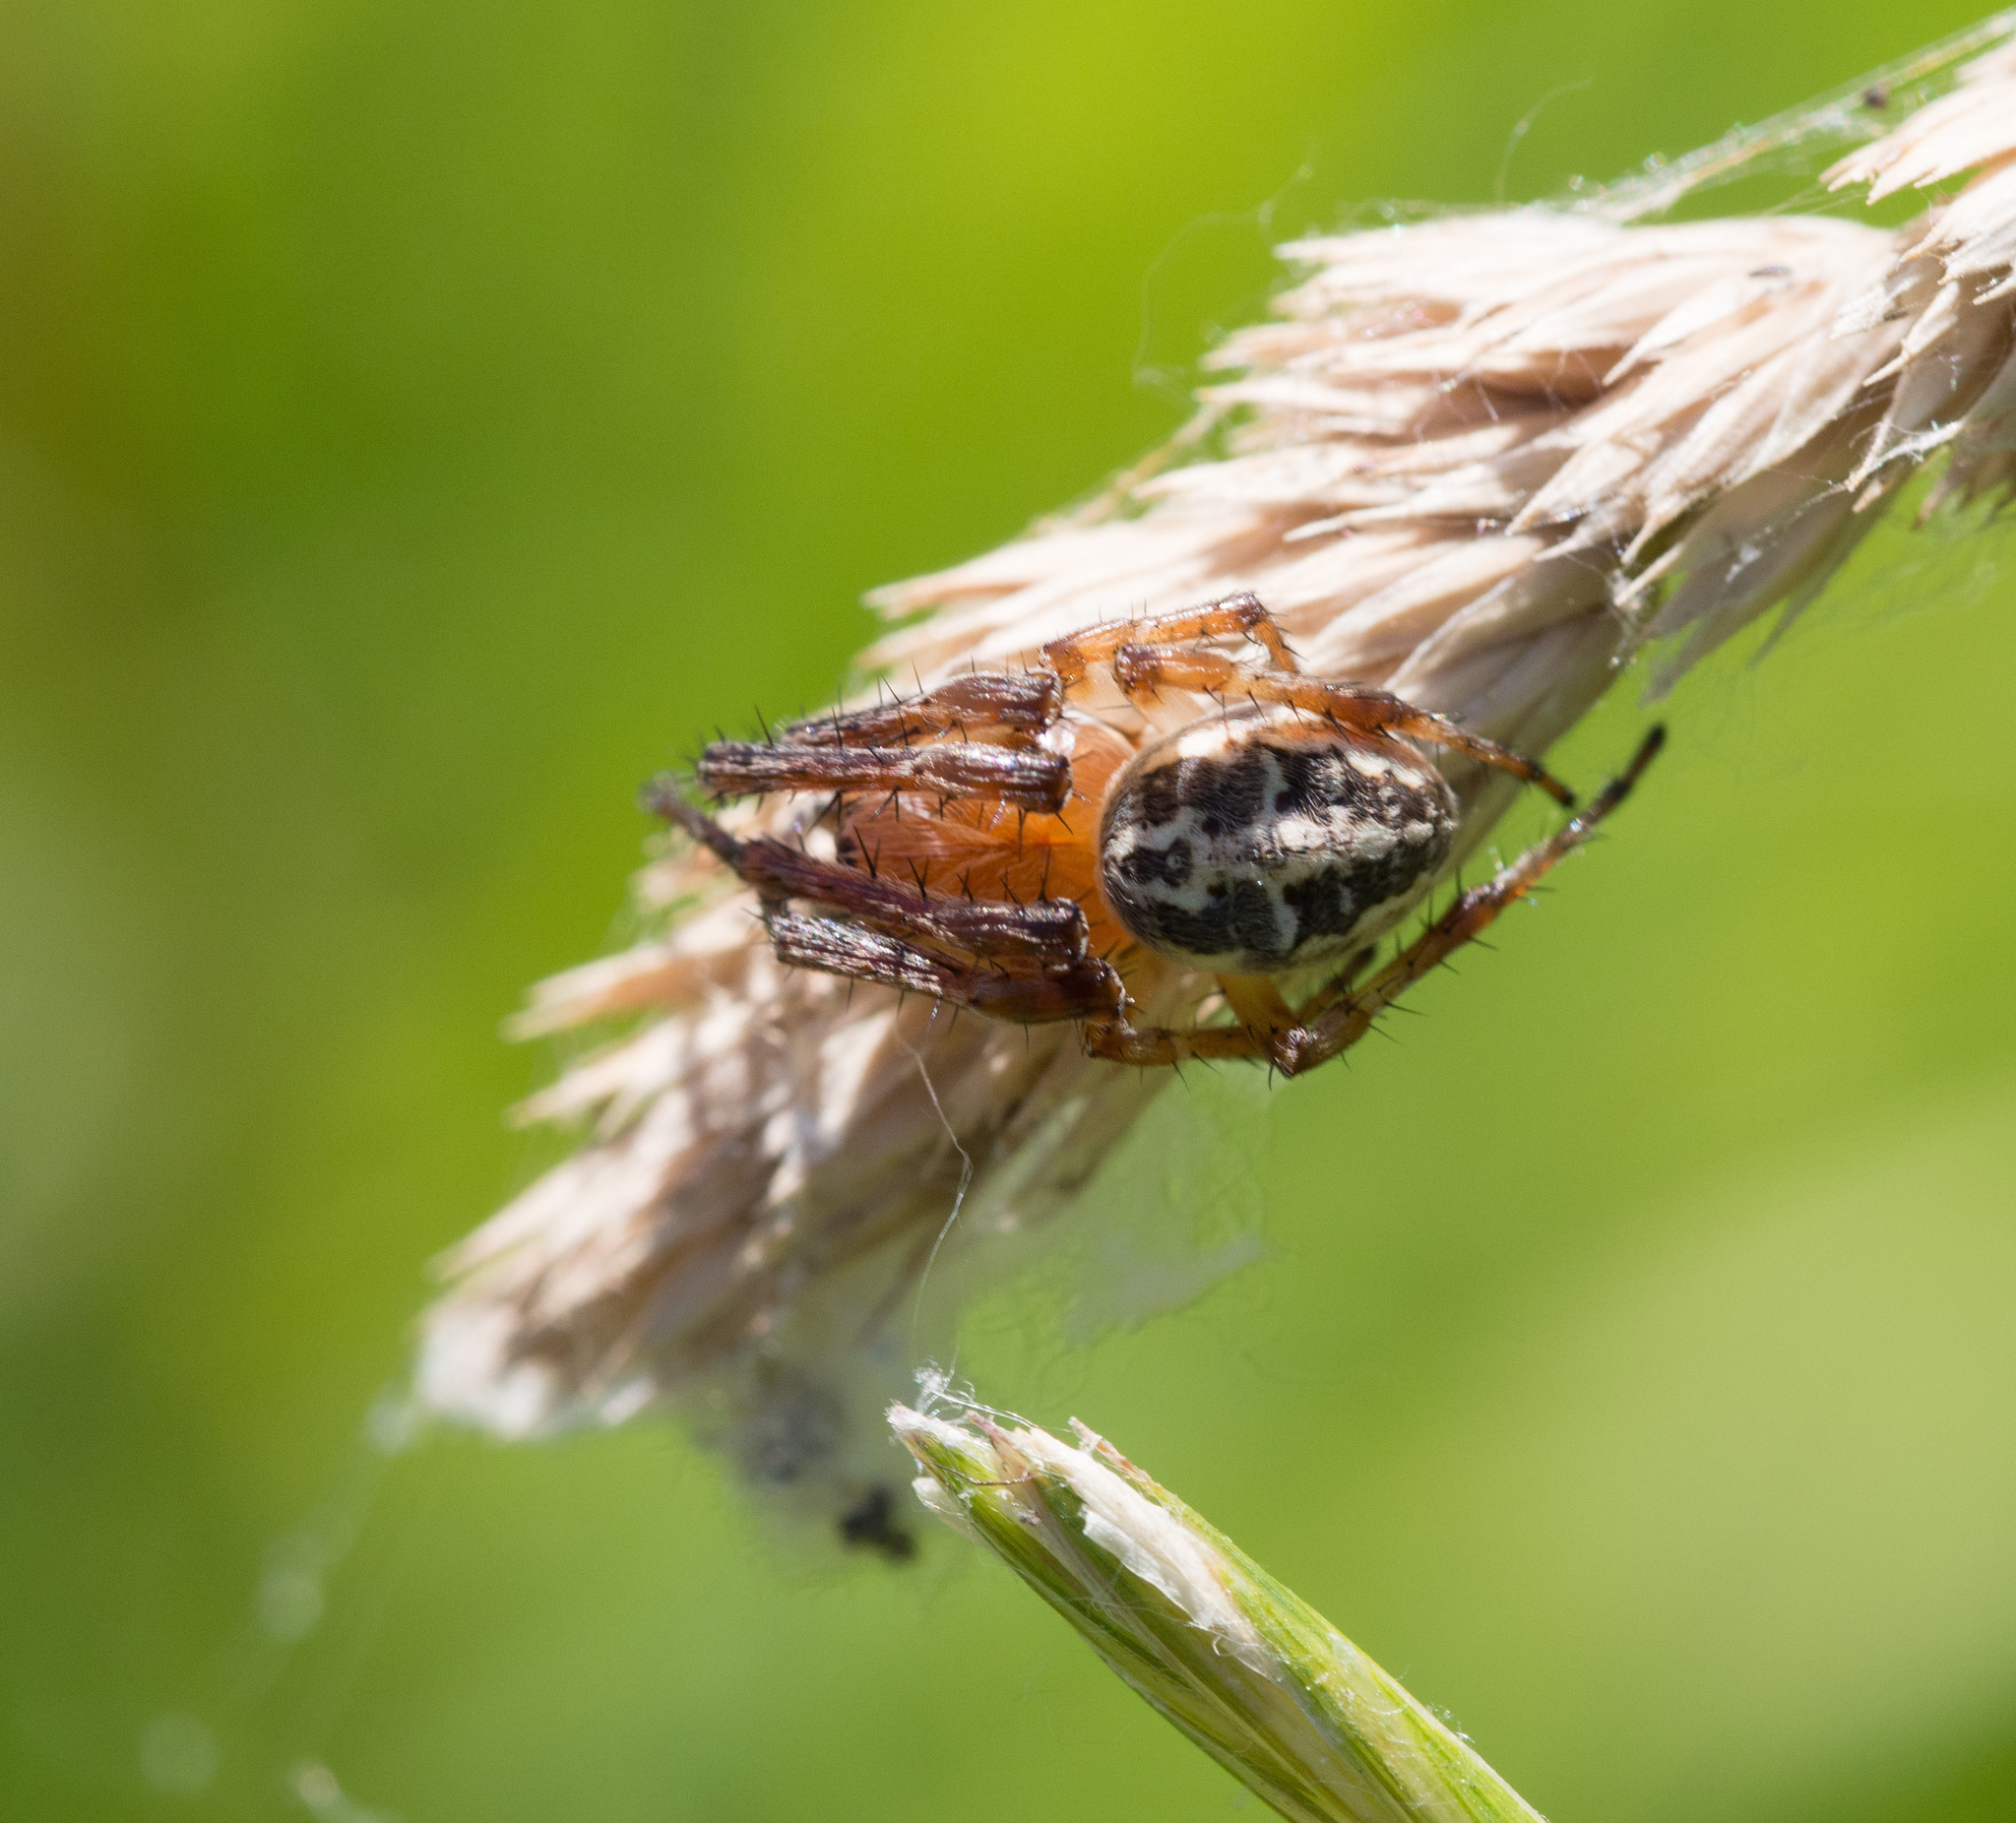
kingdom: Animalia
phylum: Arthropoda
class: Arachnida
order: Araneae
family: Araneidae
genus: Larinioides
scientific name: Larinioides
